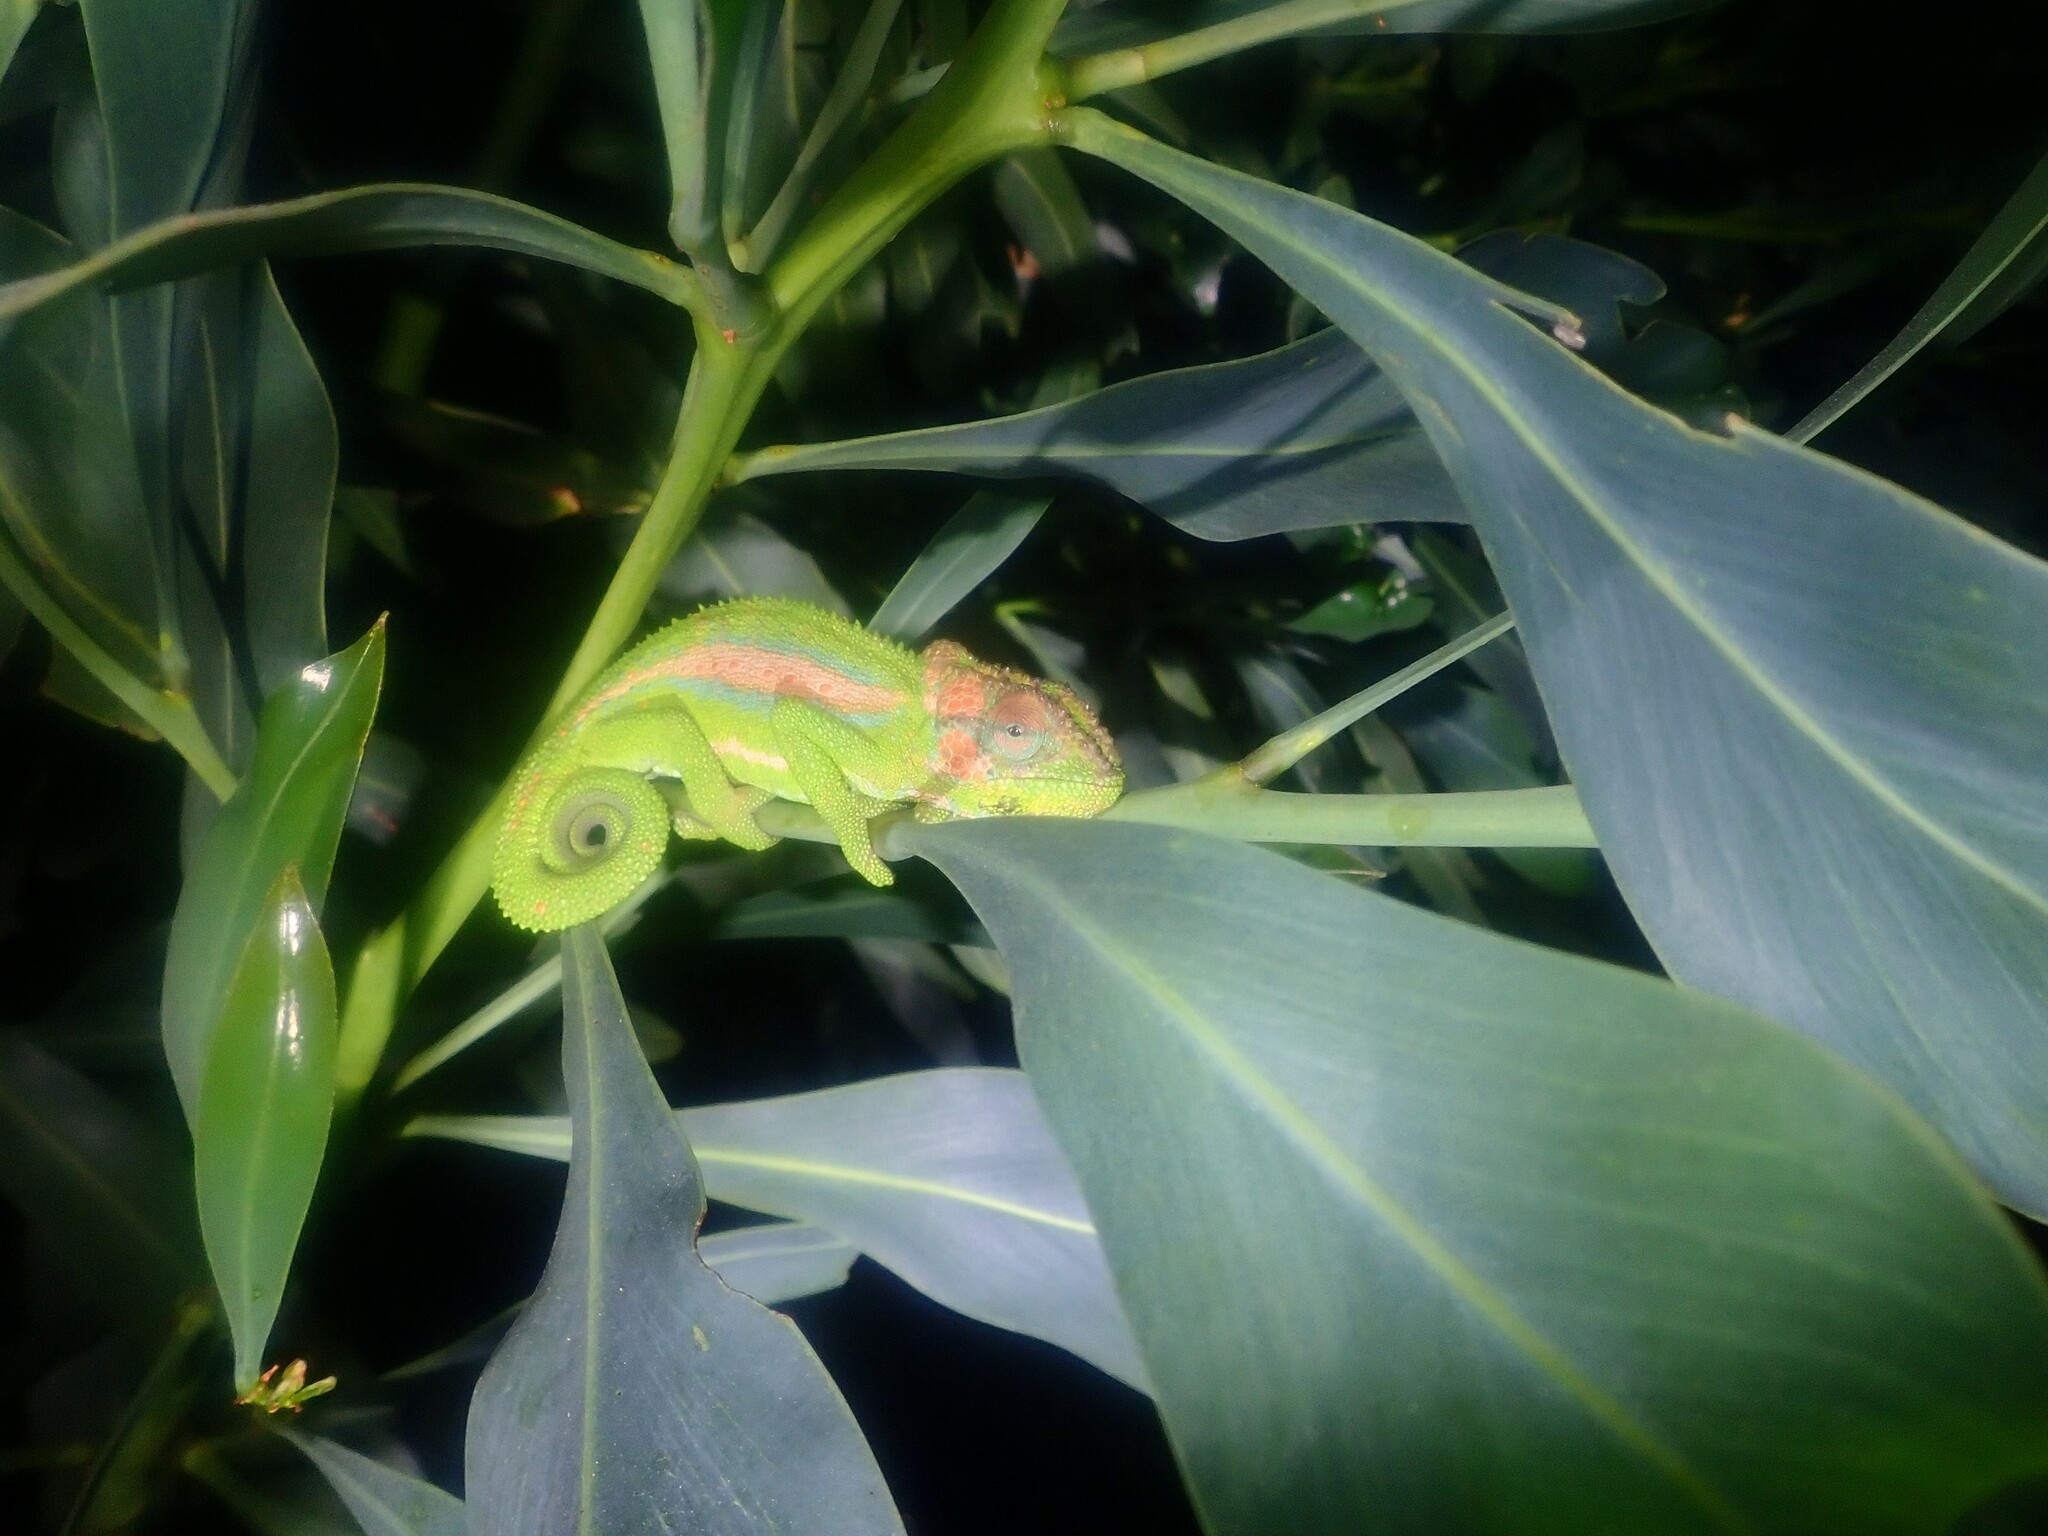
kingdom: Animalia
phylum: Chordata
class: Squamata
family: Chamaeleonidae
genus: Bradypodion
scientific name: Bradypodion pumilum
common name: Cape dwarf chameleon
